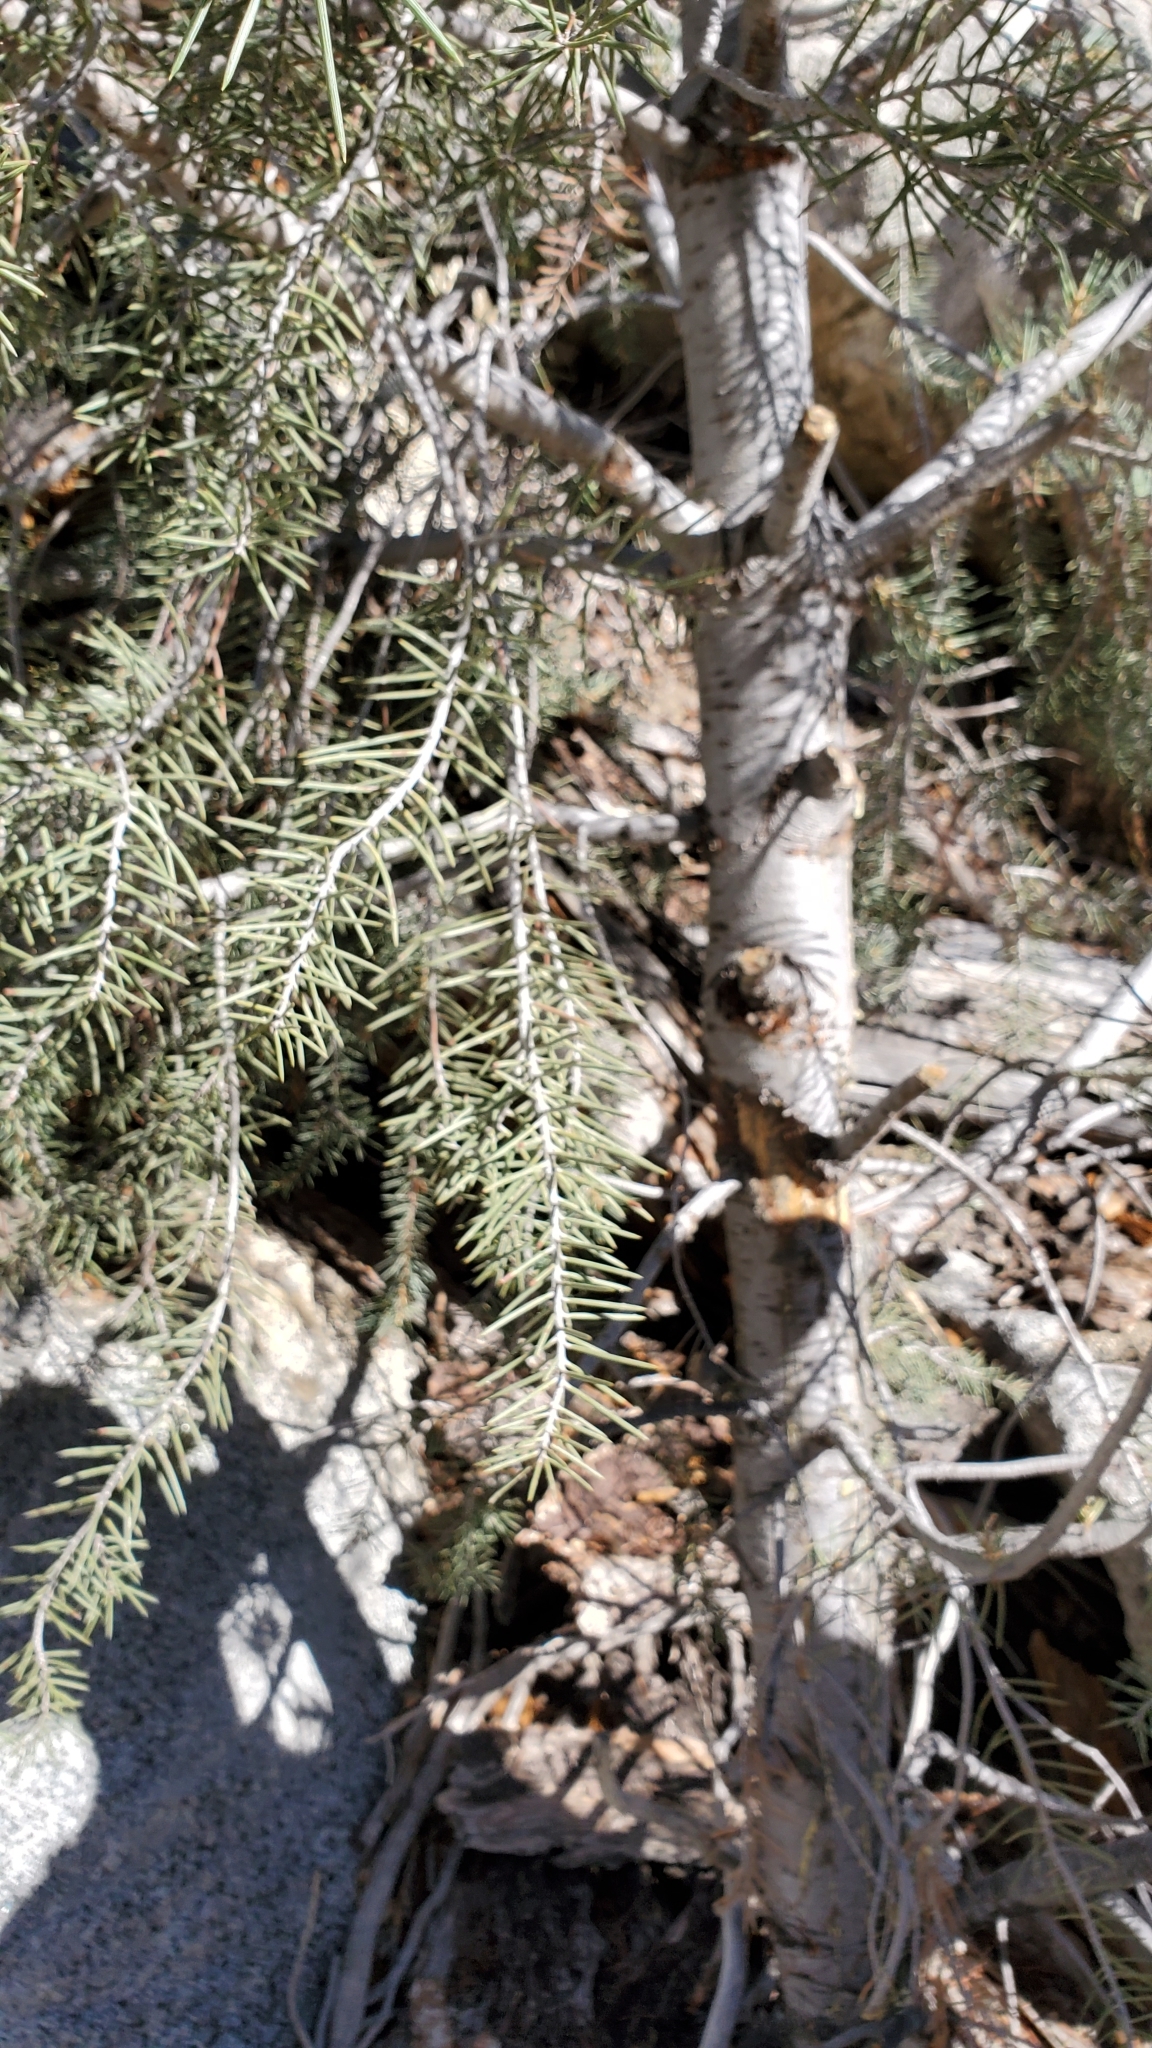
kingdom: Plantae
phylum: Tracheophyta
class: Pinopsida
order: Pinales
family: Pinaceae
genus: Pinus
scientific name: Pinus monophylla
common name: One-leaved nut pine
